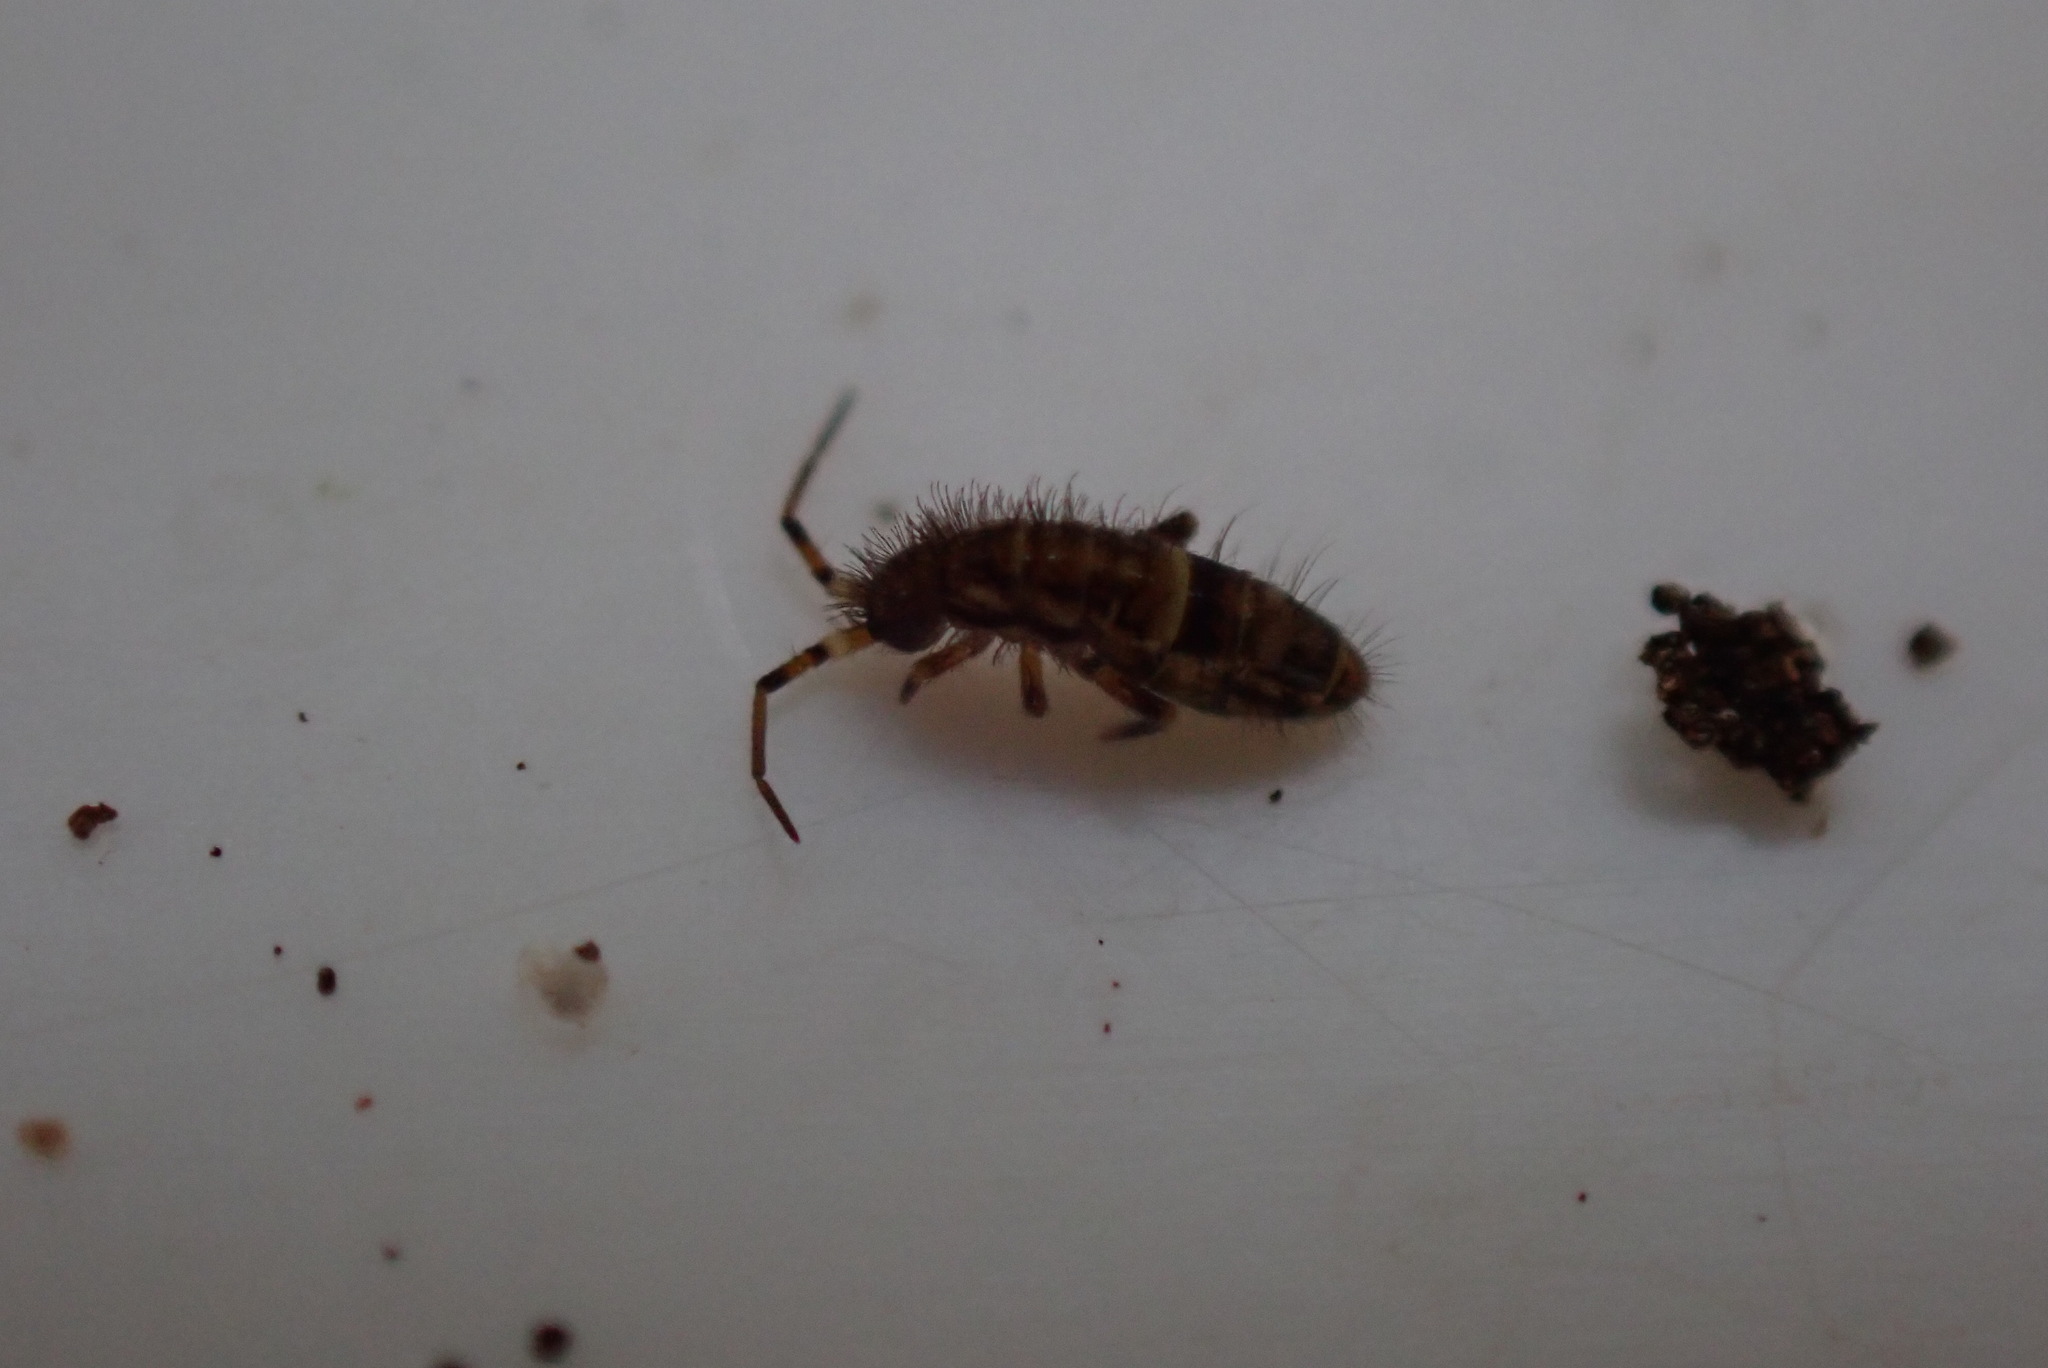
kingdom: Animalia
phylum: Arthropoda
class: Collembola
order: Entomobryomorpha
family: Orchesellidae
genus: Orchesella
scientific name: Orchesella cincta
